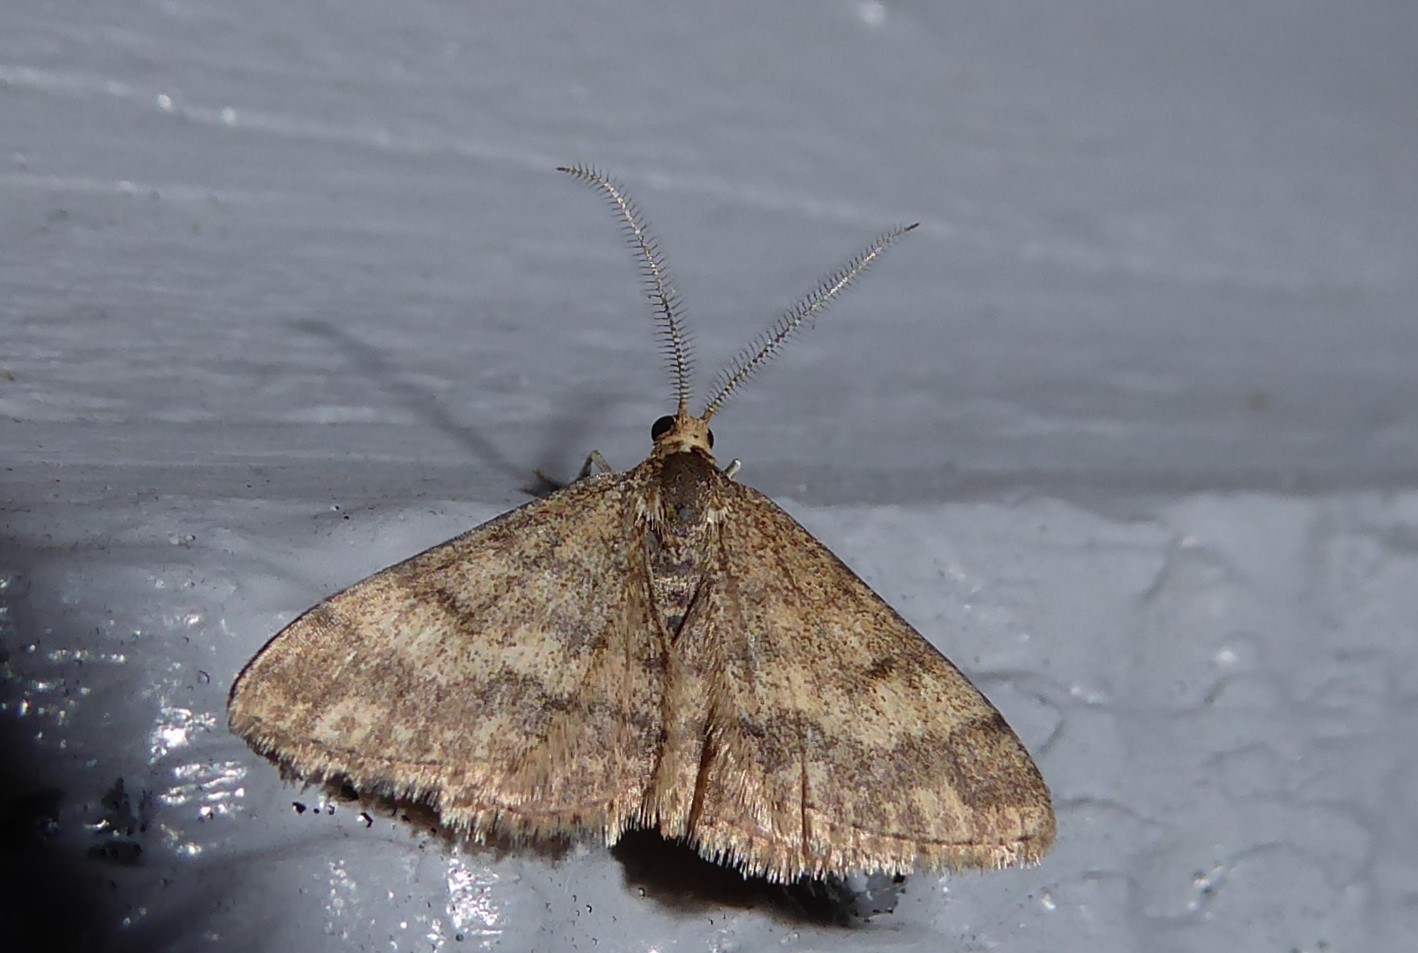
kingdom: Animalia
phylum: Arthropoda
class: Insecta
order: Lepidoptera
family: Geometridae
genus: Scopula
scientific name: Scopula rubraria
